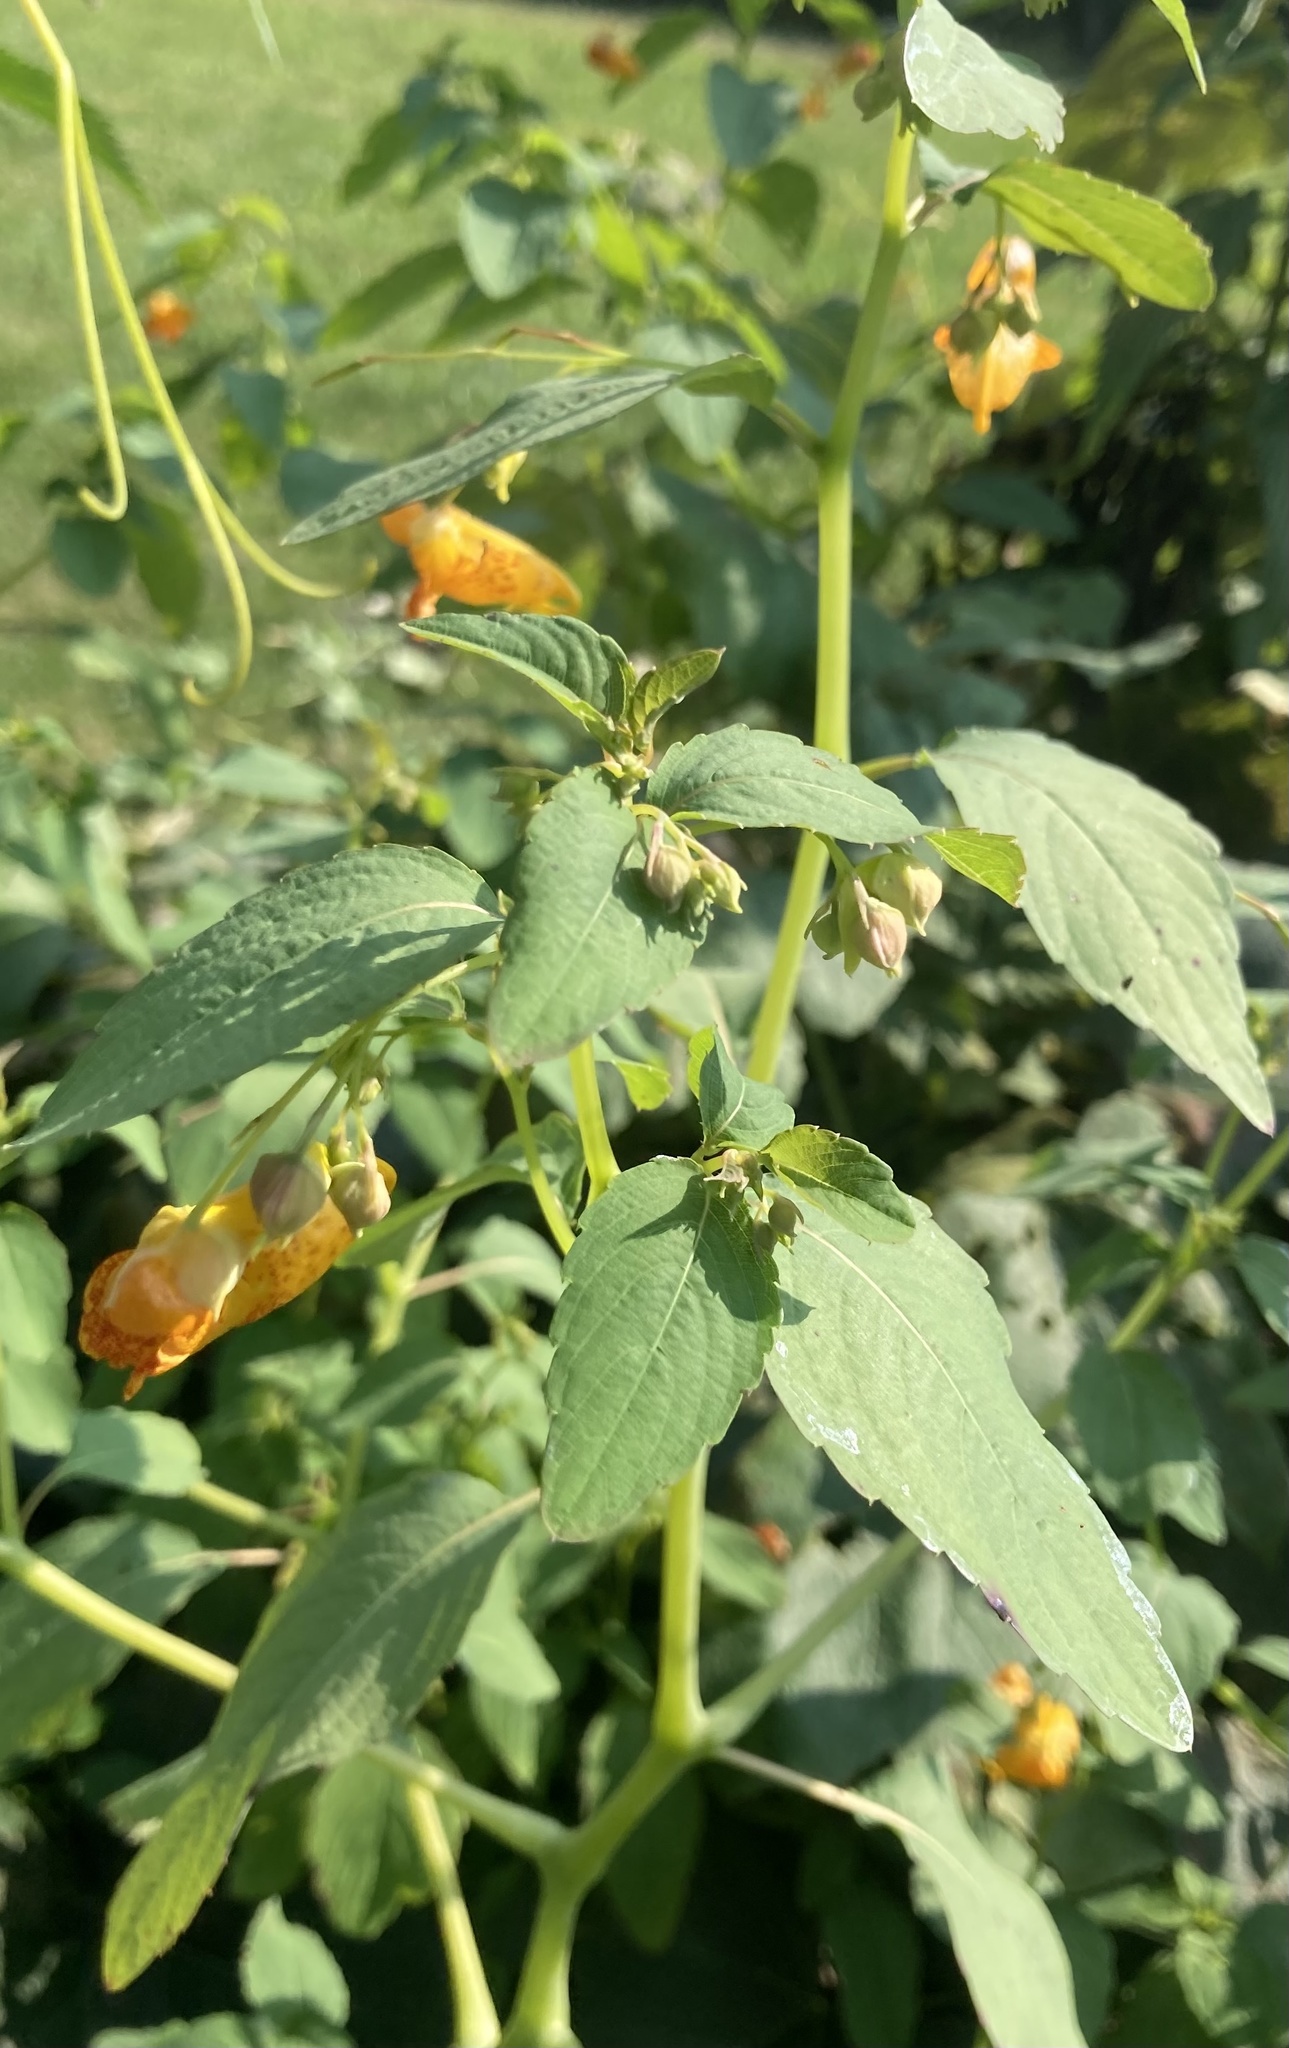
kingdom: Plantae
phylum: Tracheophyta
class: Magnoliopsida
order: Ericales
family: Balsaminaceae
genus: Impatiens
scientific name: Impatiens capensis
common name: Orange balsam
